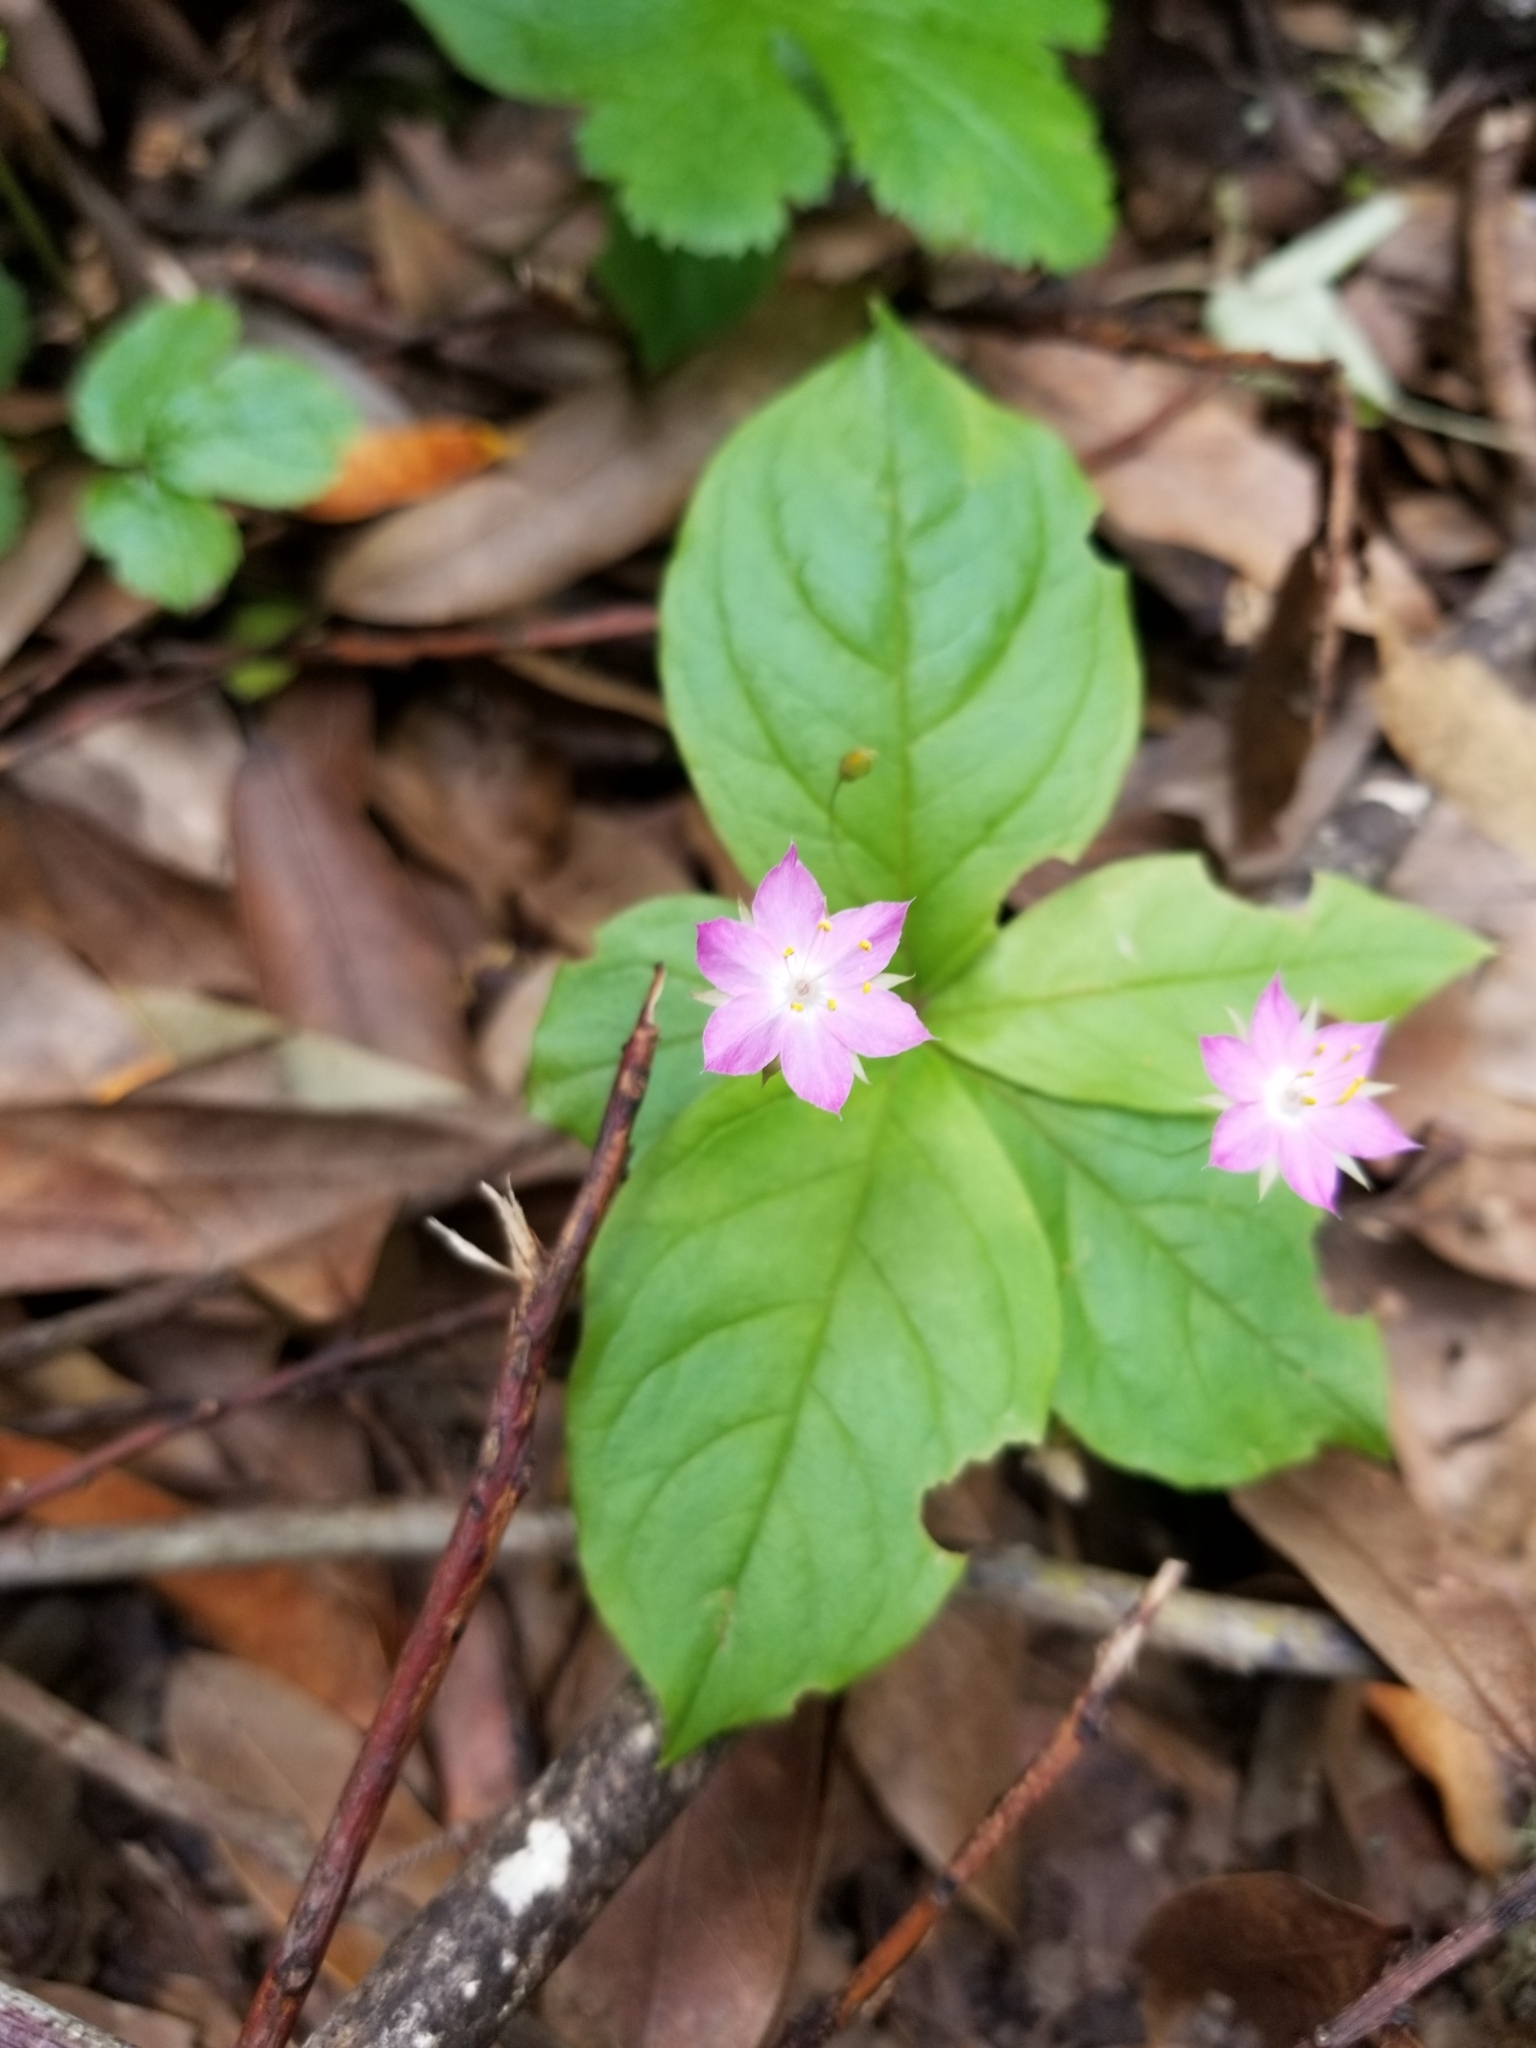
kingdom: Plantae
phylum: Tracheophyta
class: Magnoliopsida
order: Ericales
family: Primulaceae
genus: Lysimachia
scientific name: Lysimachia latifolia
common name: Pacific starflower
